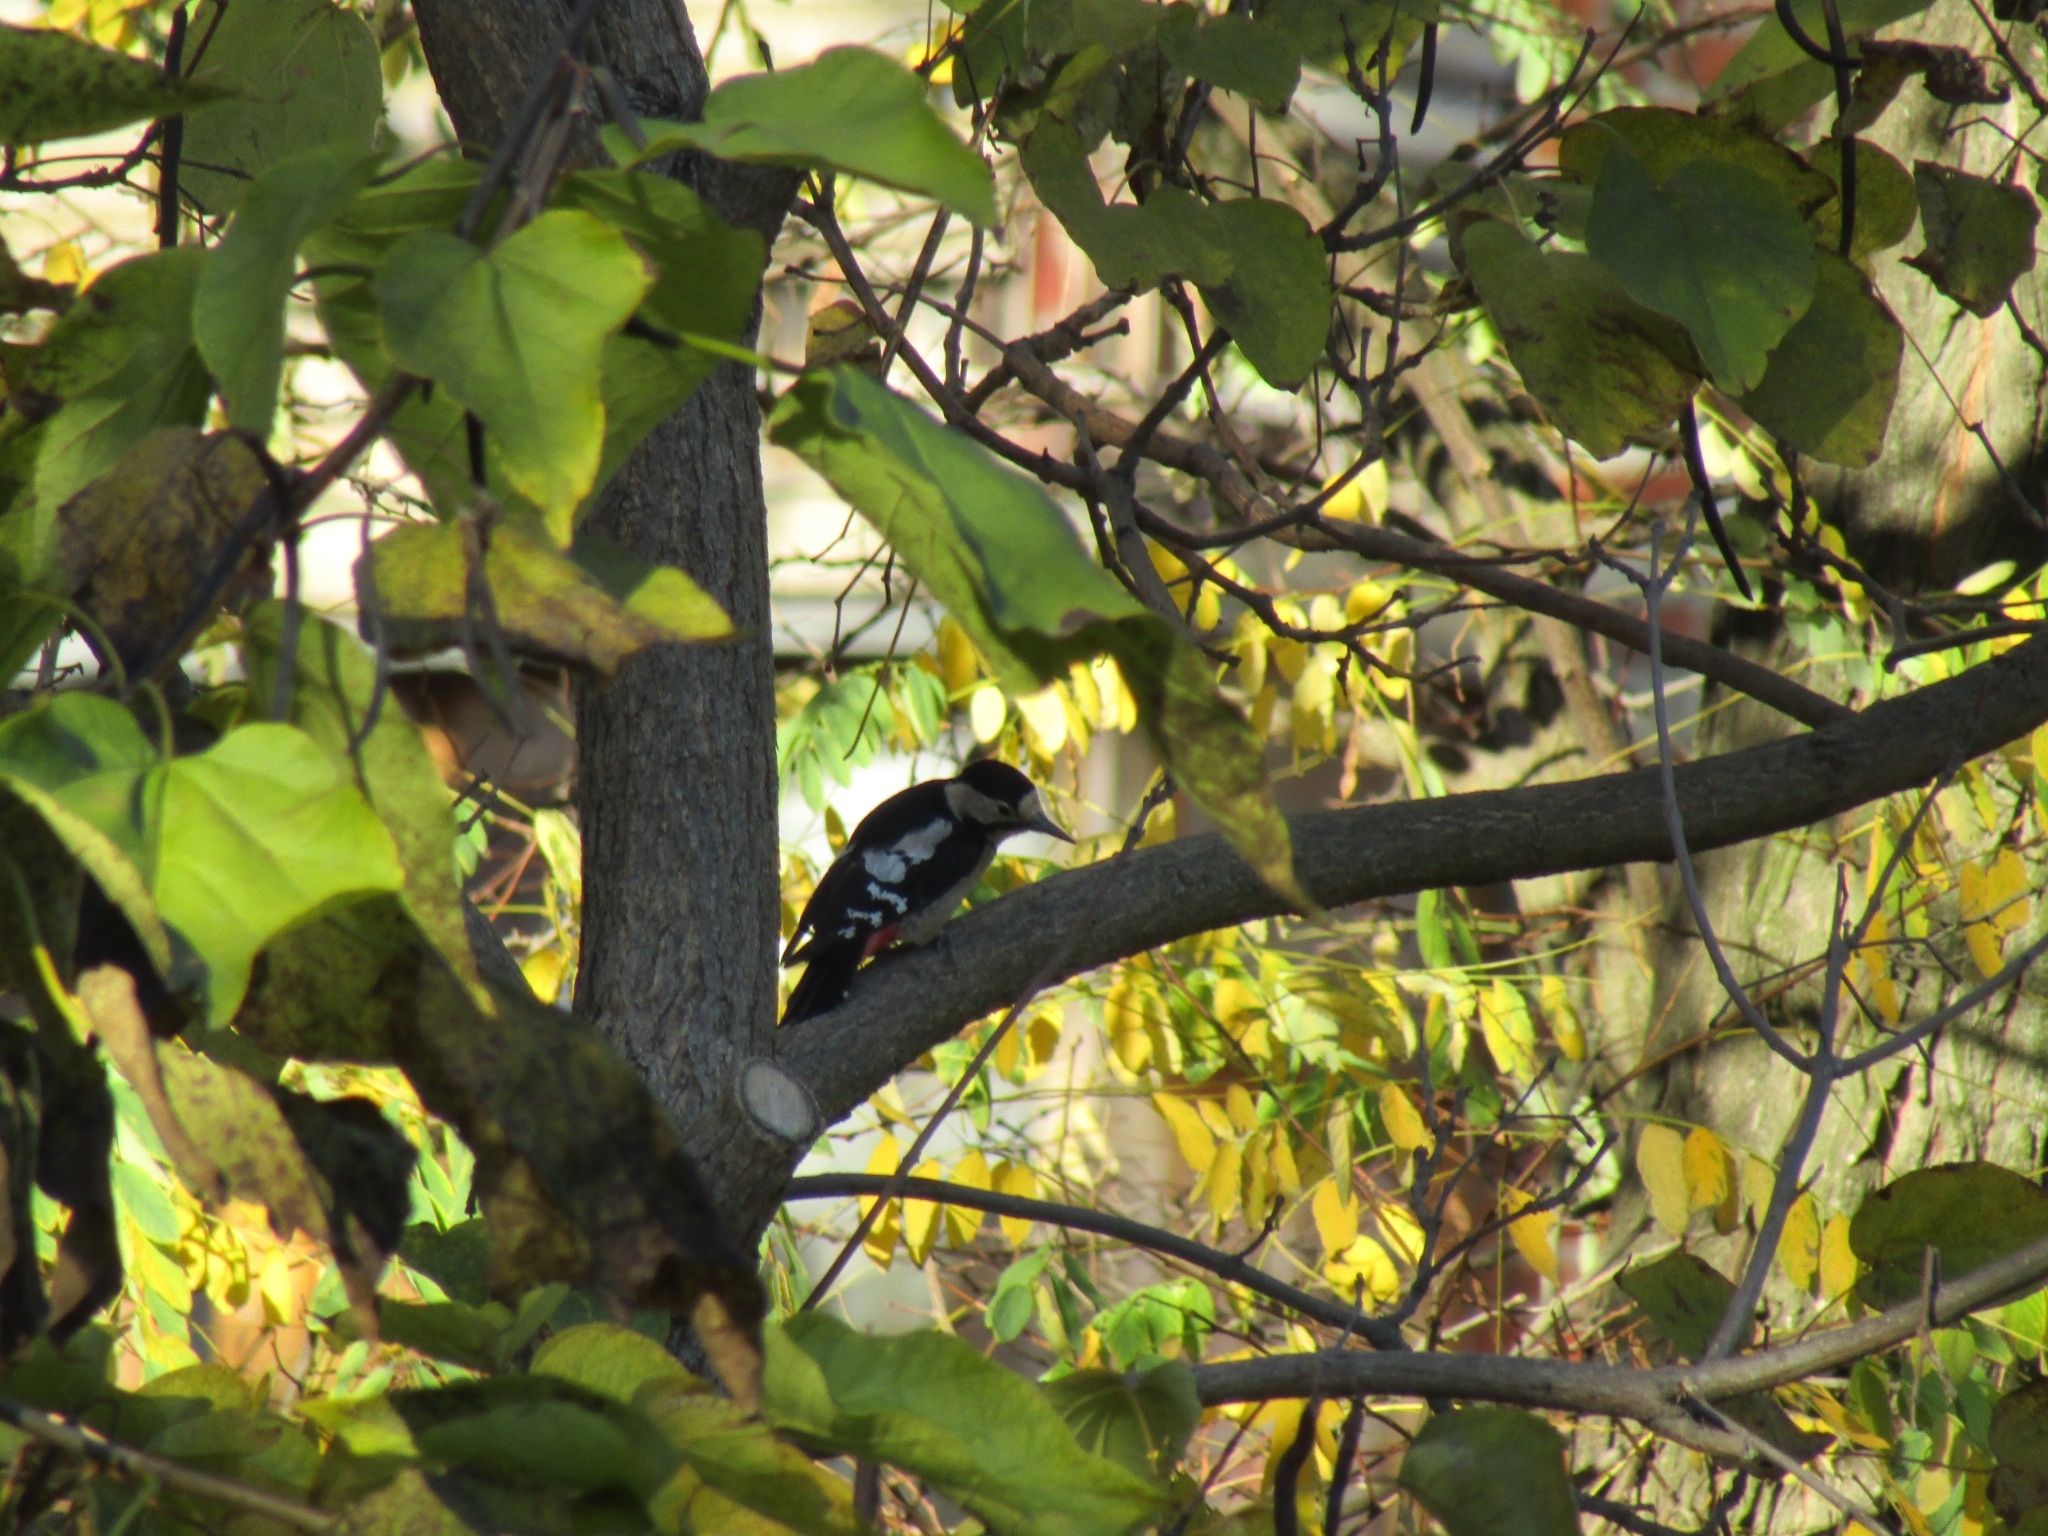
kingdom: Animalia
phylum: Chordata
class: Aves
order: Piciformes
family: Picidae
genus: Dendrocopos
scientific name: Dendrocopos syriacus
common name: Syrian woodpecker
